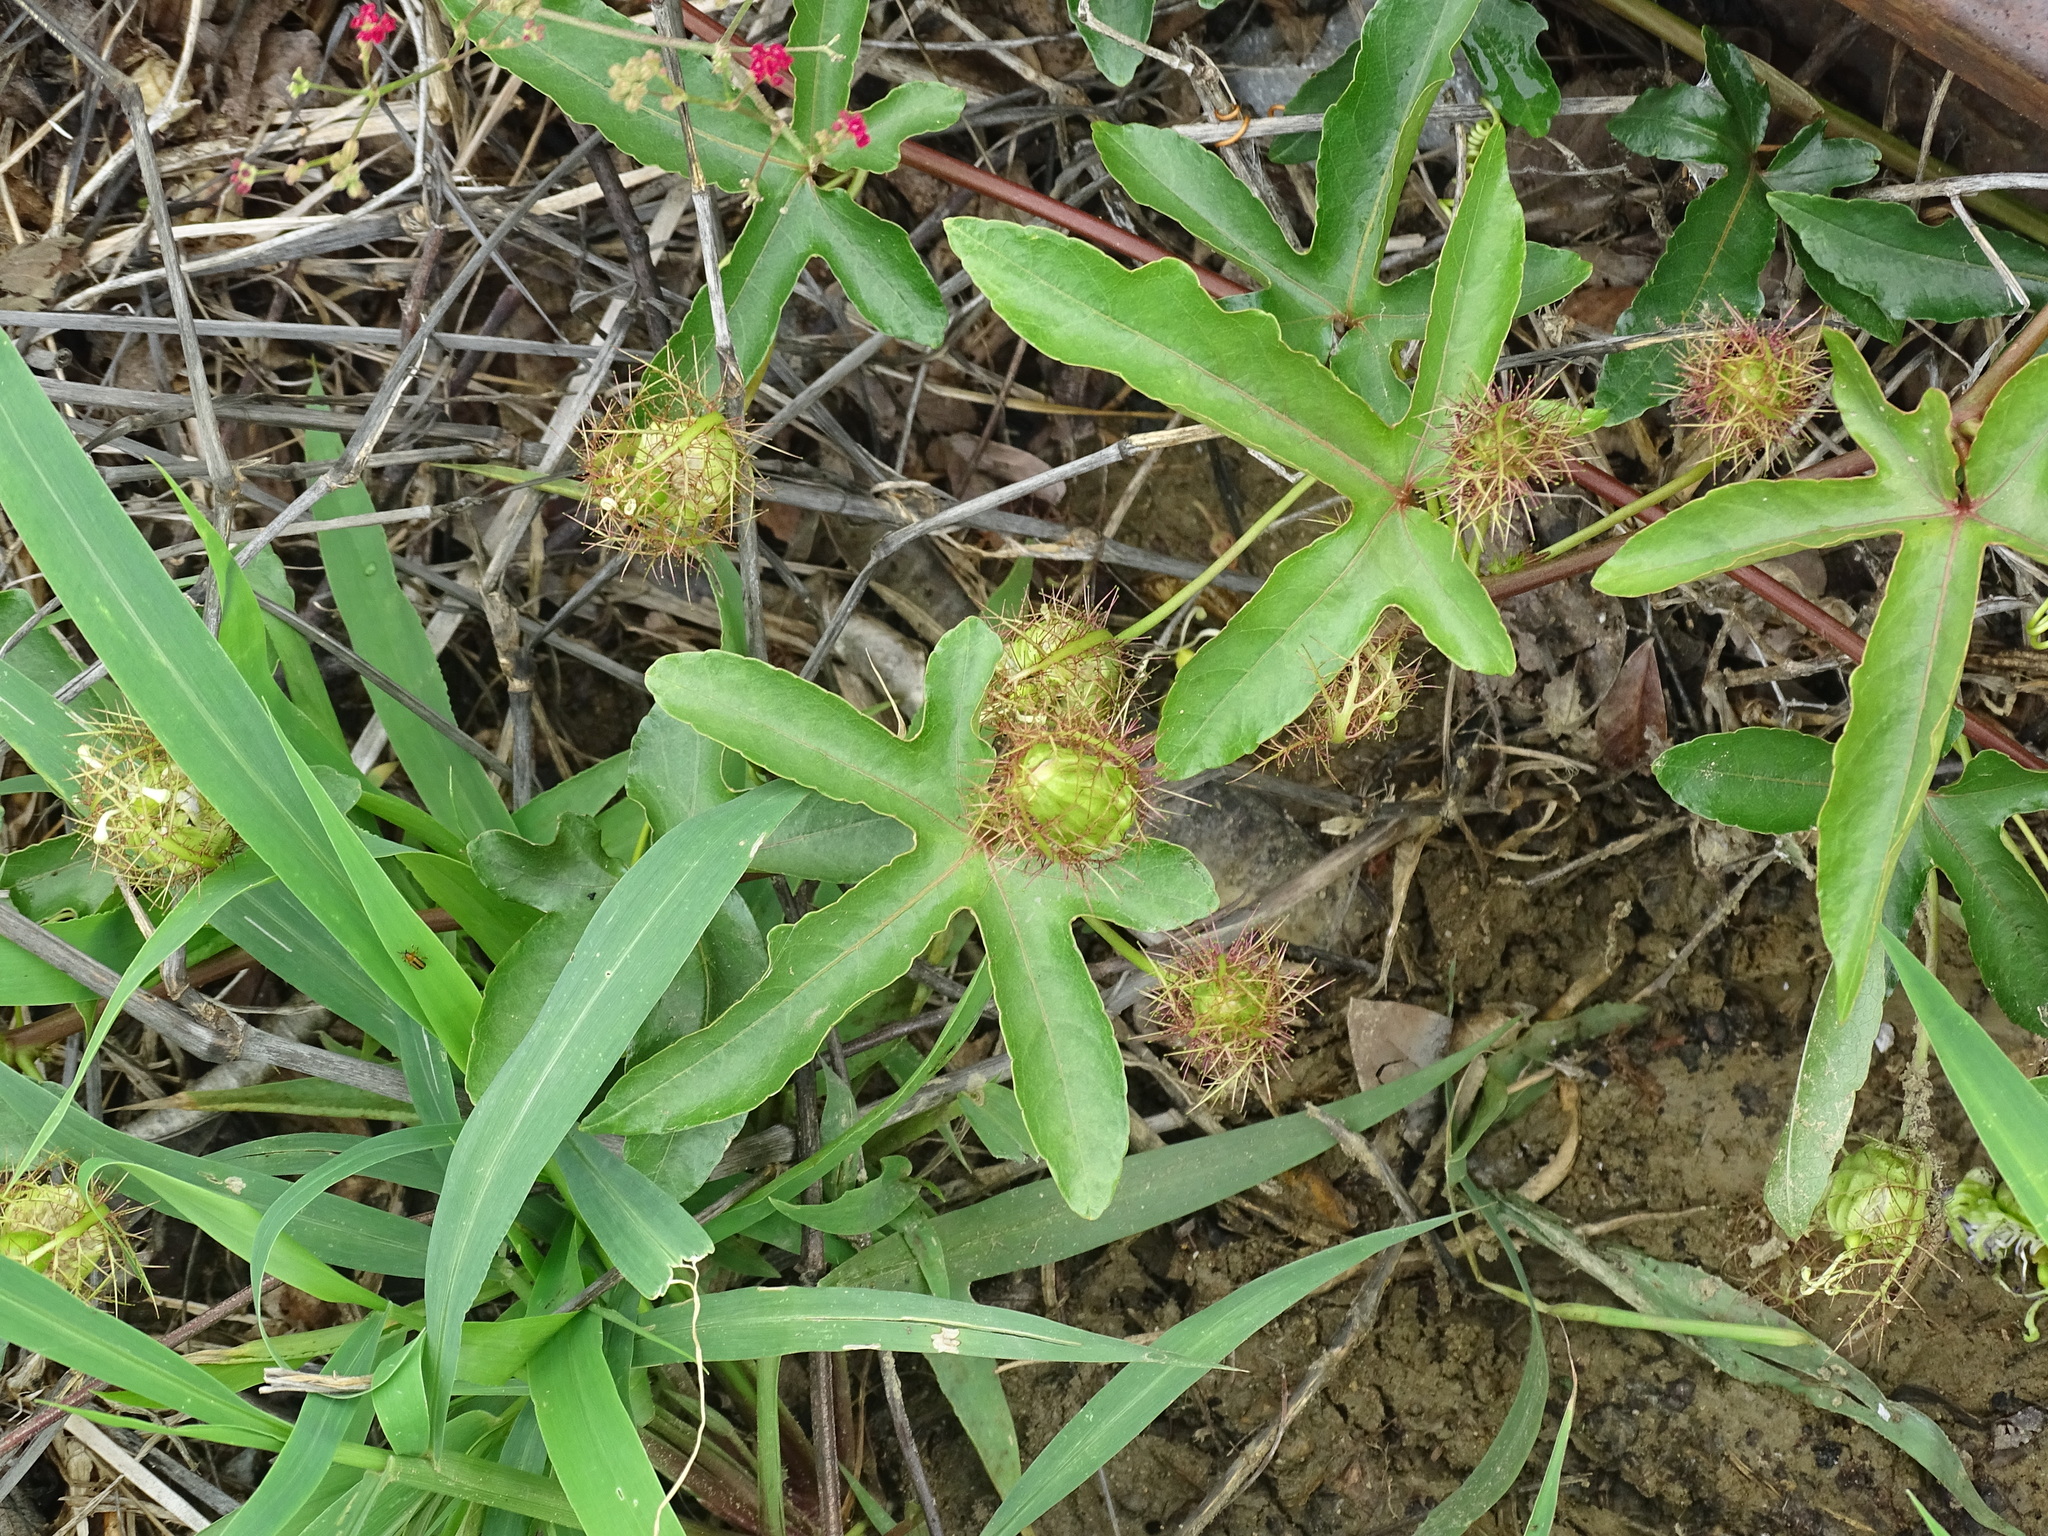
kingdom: Plantae
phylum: Tracheophyta
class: Magnoliopsida
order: Malpighiales
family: Passifloraceae
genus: Passiflora
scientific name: Passiflora ciliata
